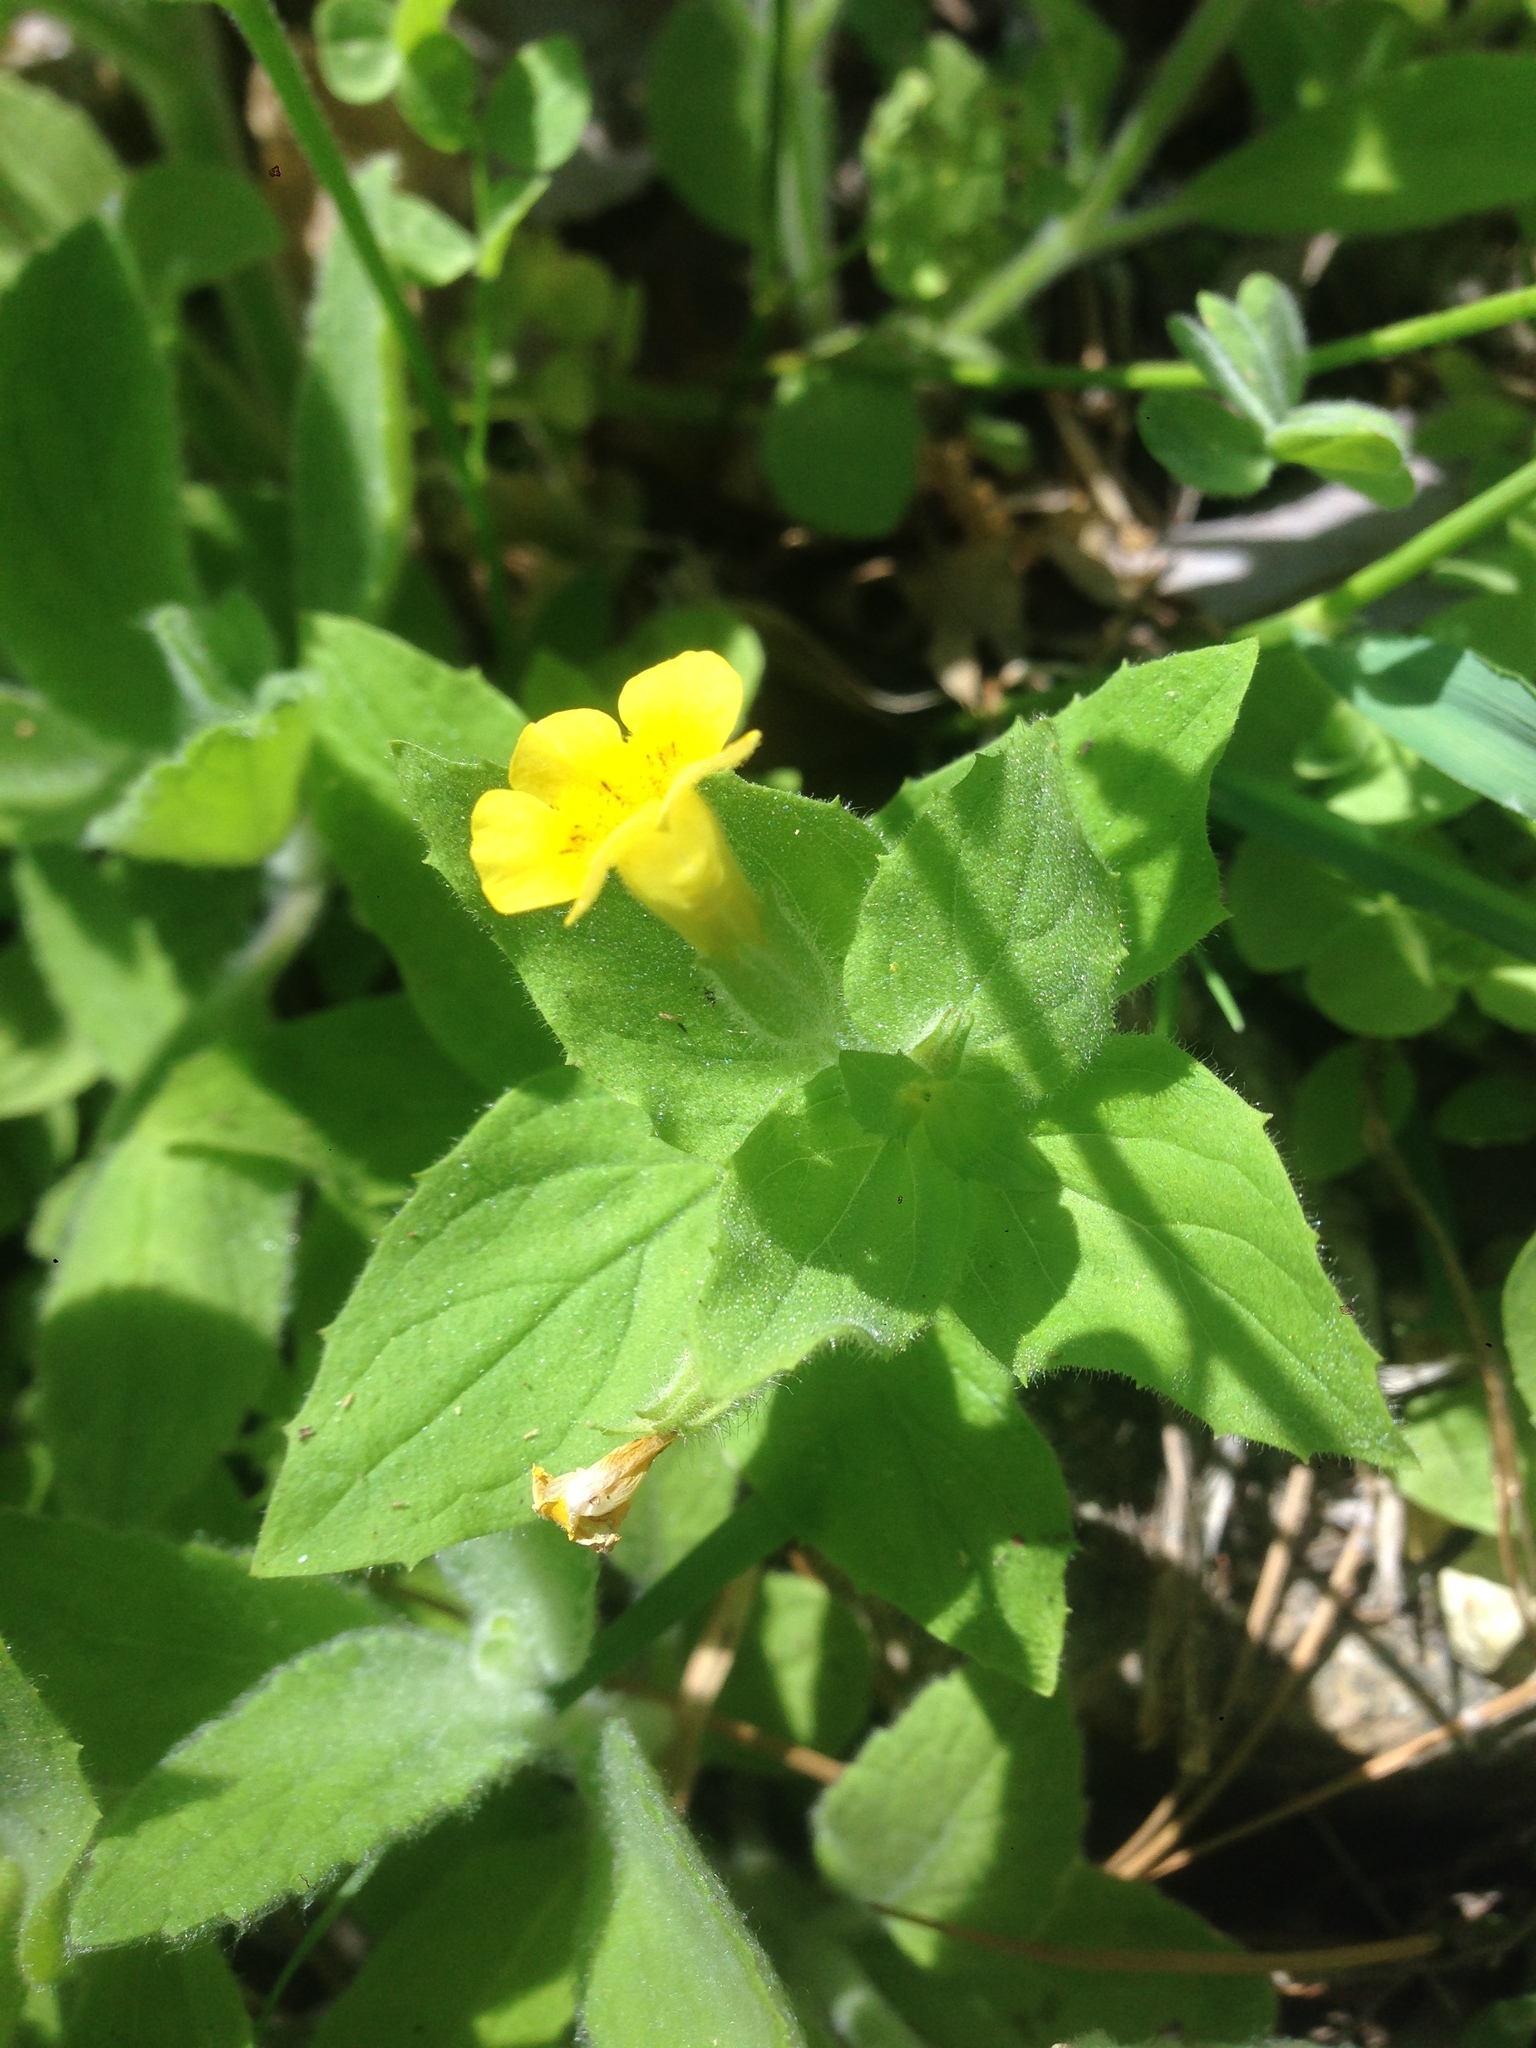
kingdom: Plantae
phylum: Tracheophyta
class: Magnoliopsida
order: Lamiales
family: Phrymaceae
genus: Erythranthe
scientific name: Erythranthe moschata
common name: Muskflower
